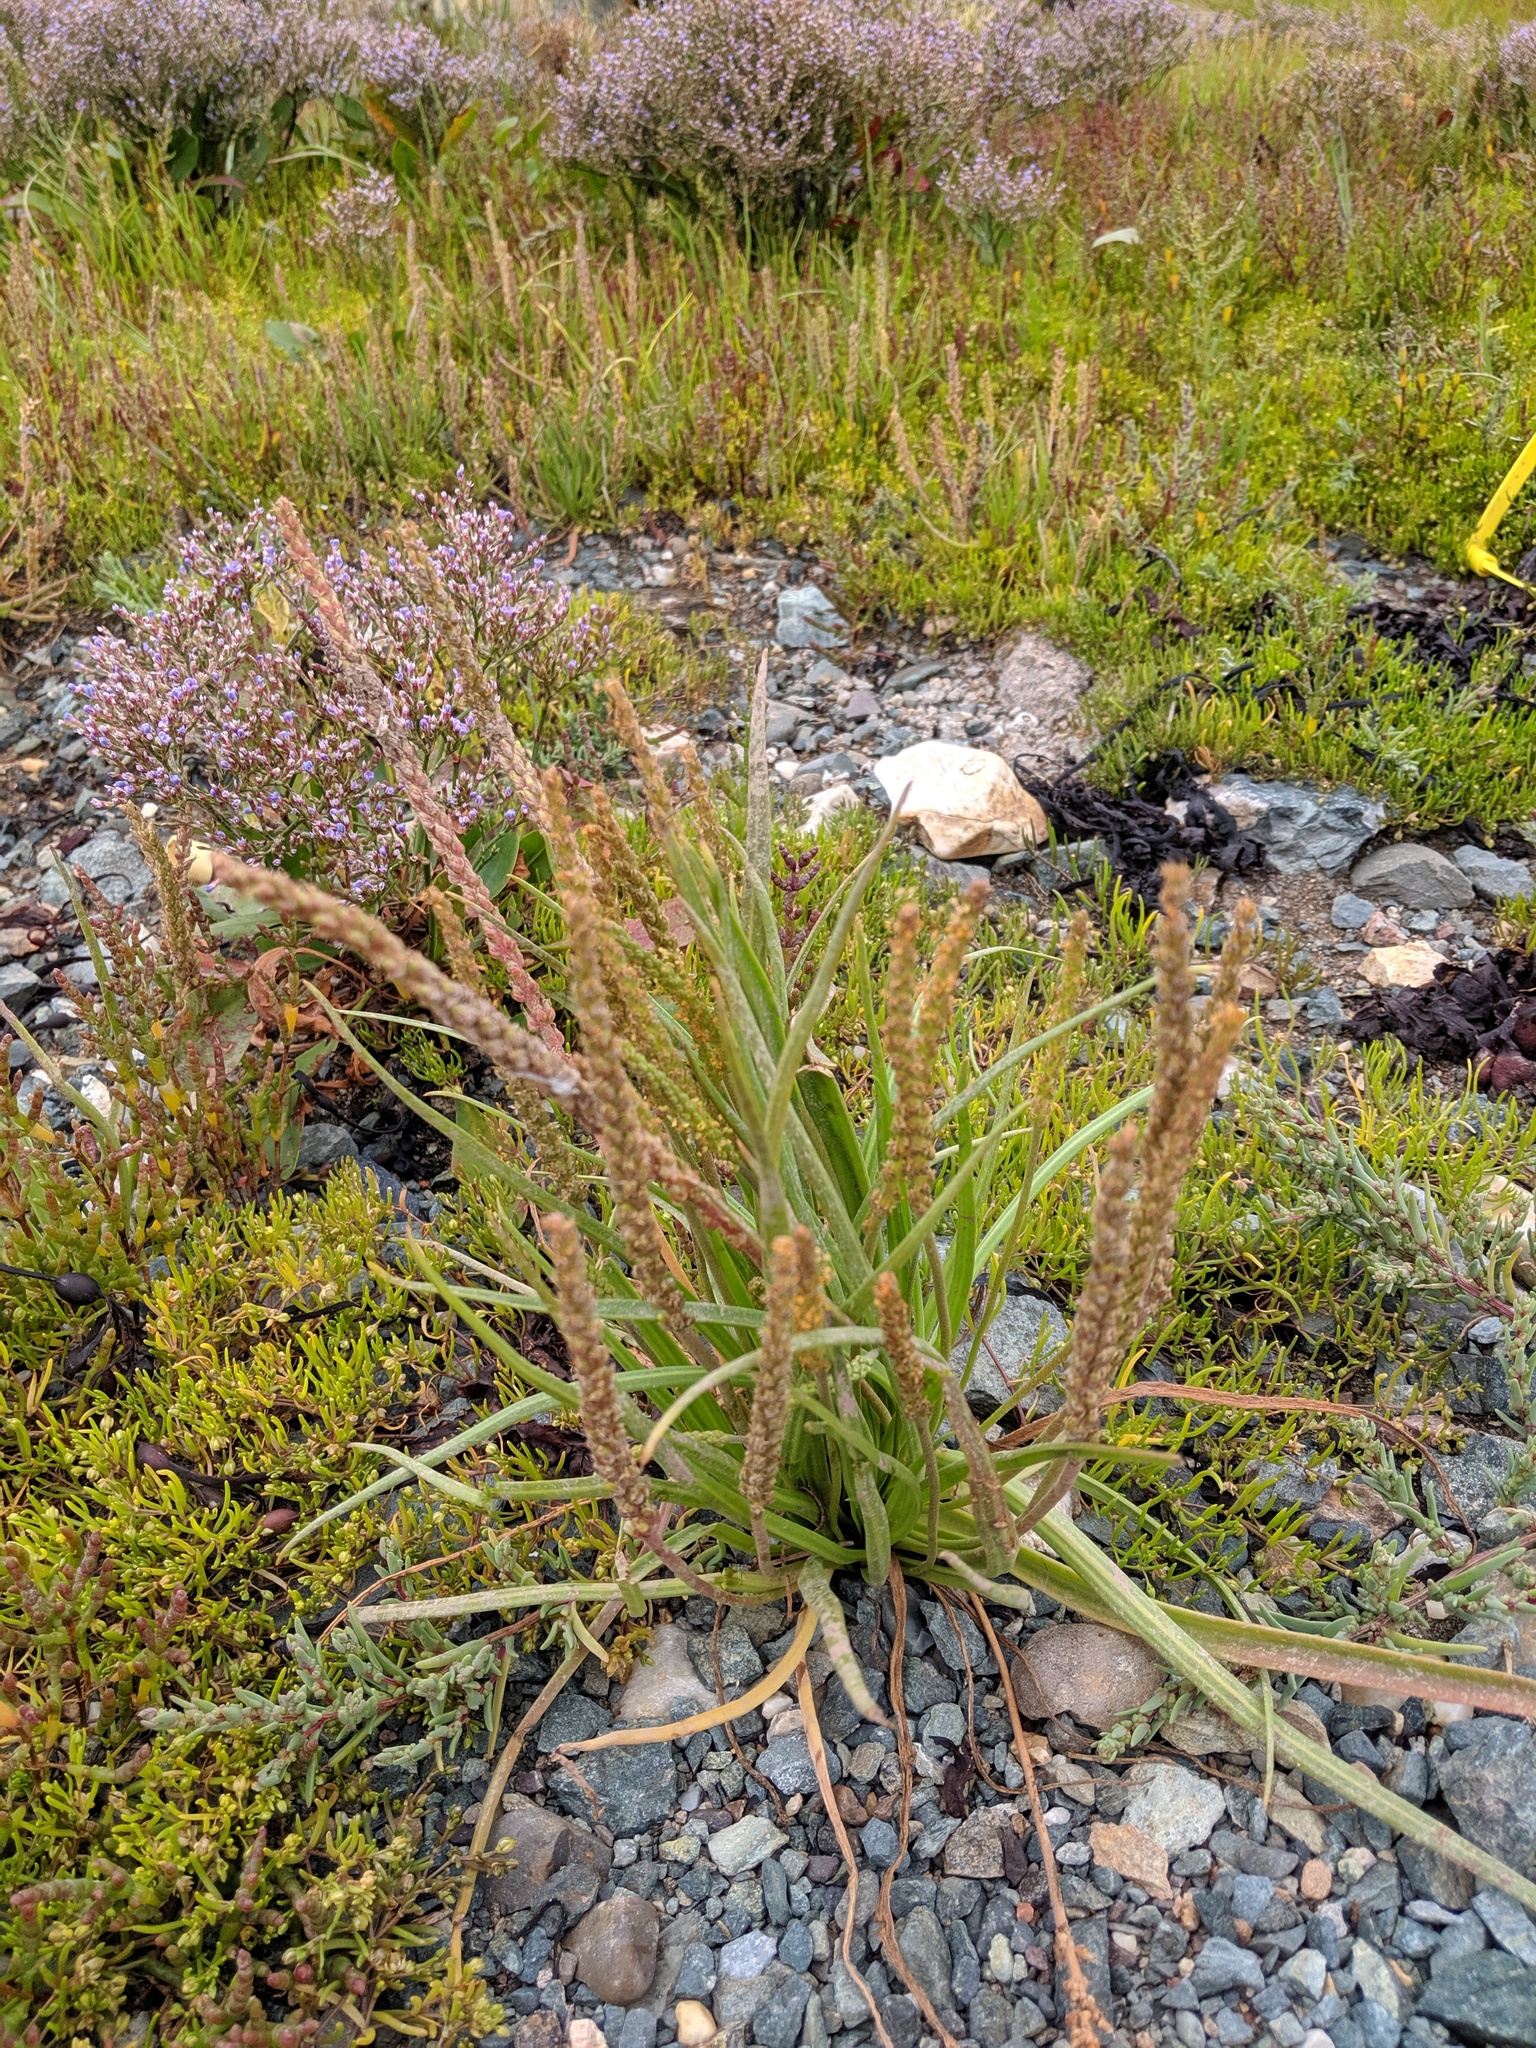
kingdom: Plantae
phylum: Tracheophyta
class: Magnoliopsida
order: Lamiales
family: Plantaginaceae
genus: Plantago
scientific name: Plantago maritima
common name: Sea plantain
